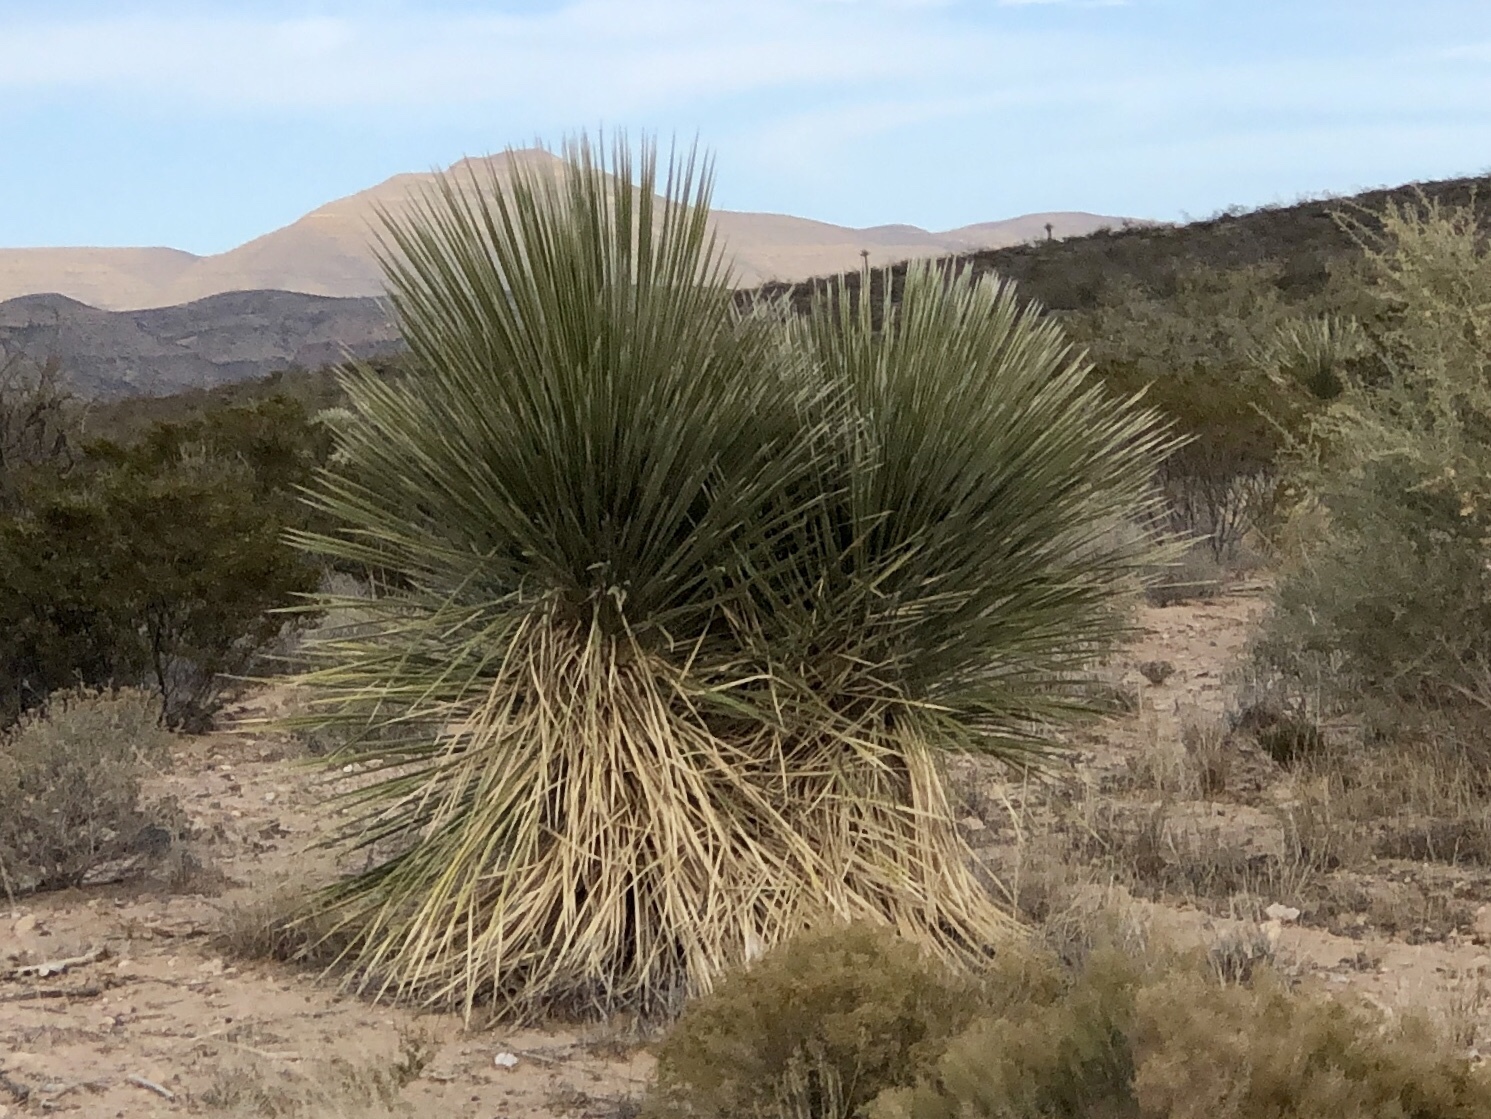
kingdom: Plantae
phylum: Tracheophyta
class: Liliopsida
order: Asparagales
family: Asparagaceae
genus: Yucca
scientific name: Yucca elata
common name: Palmella
